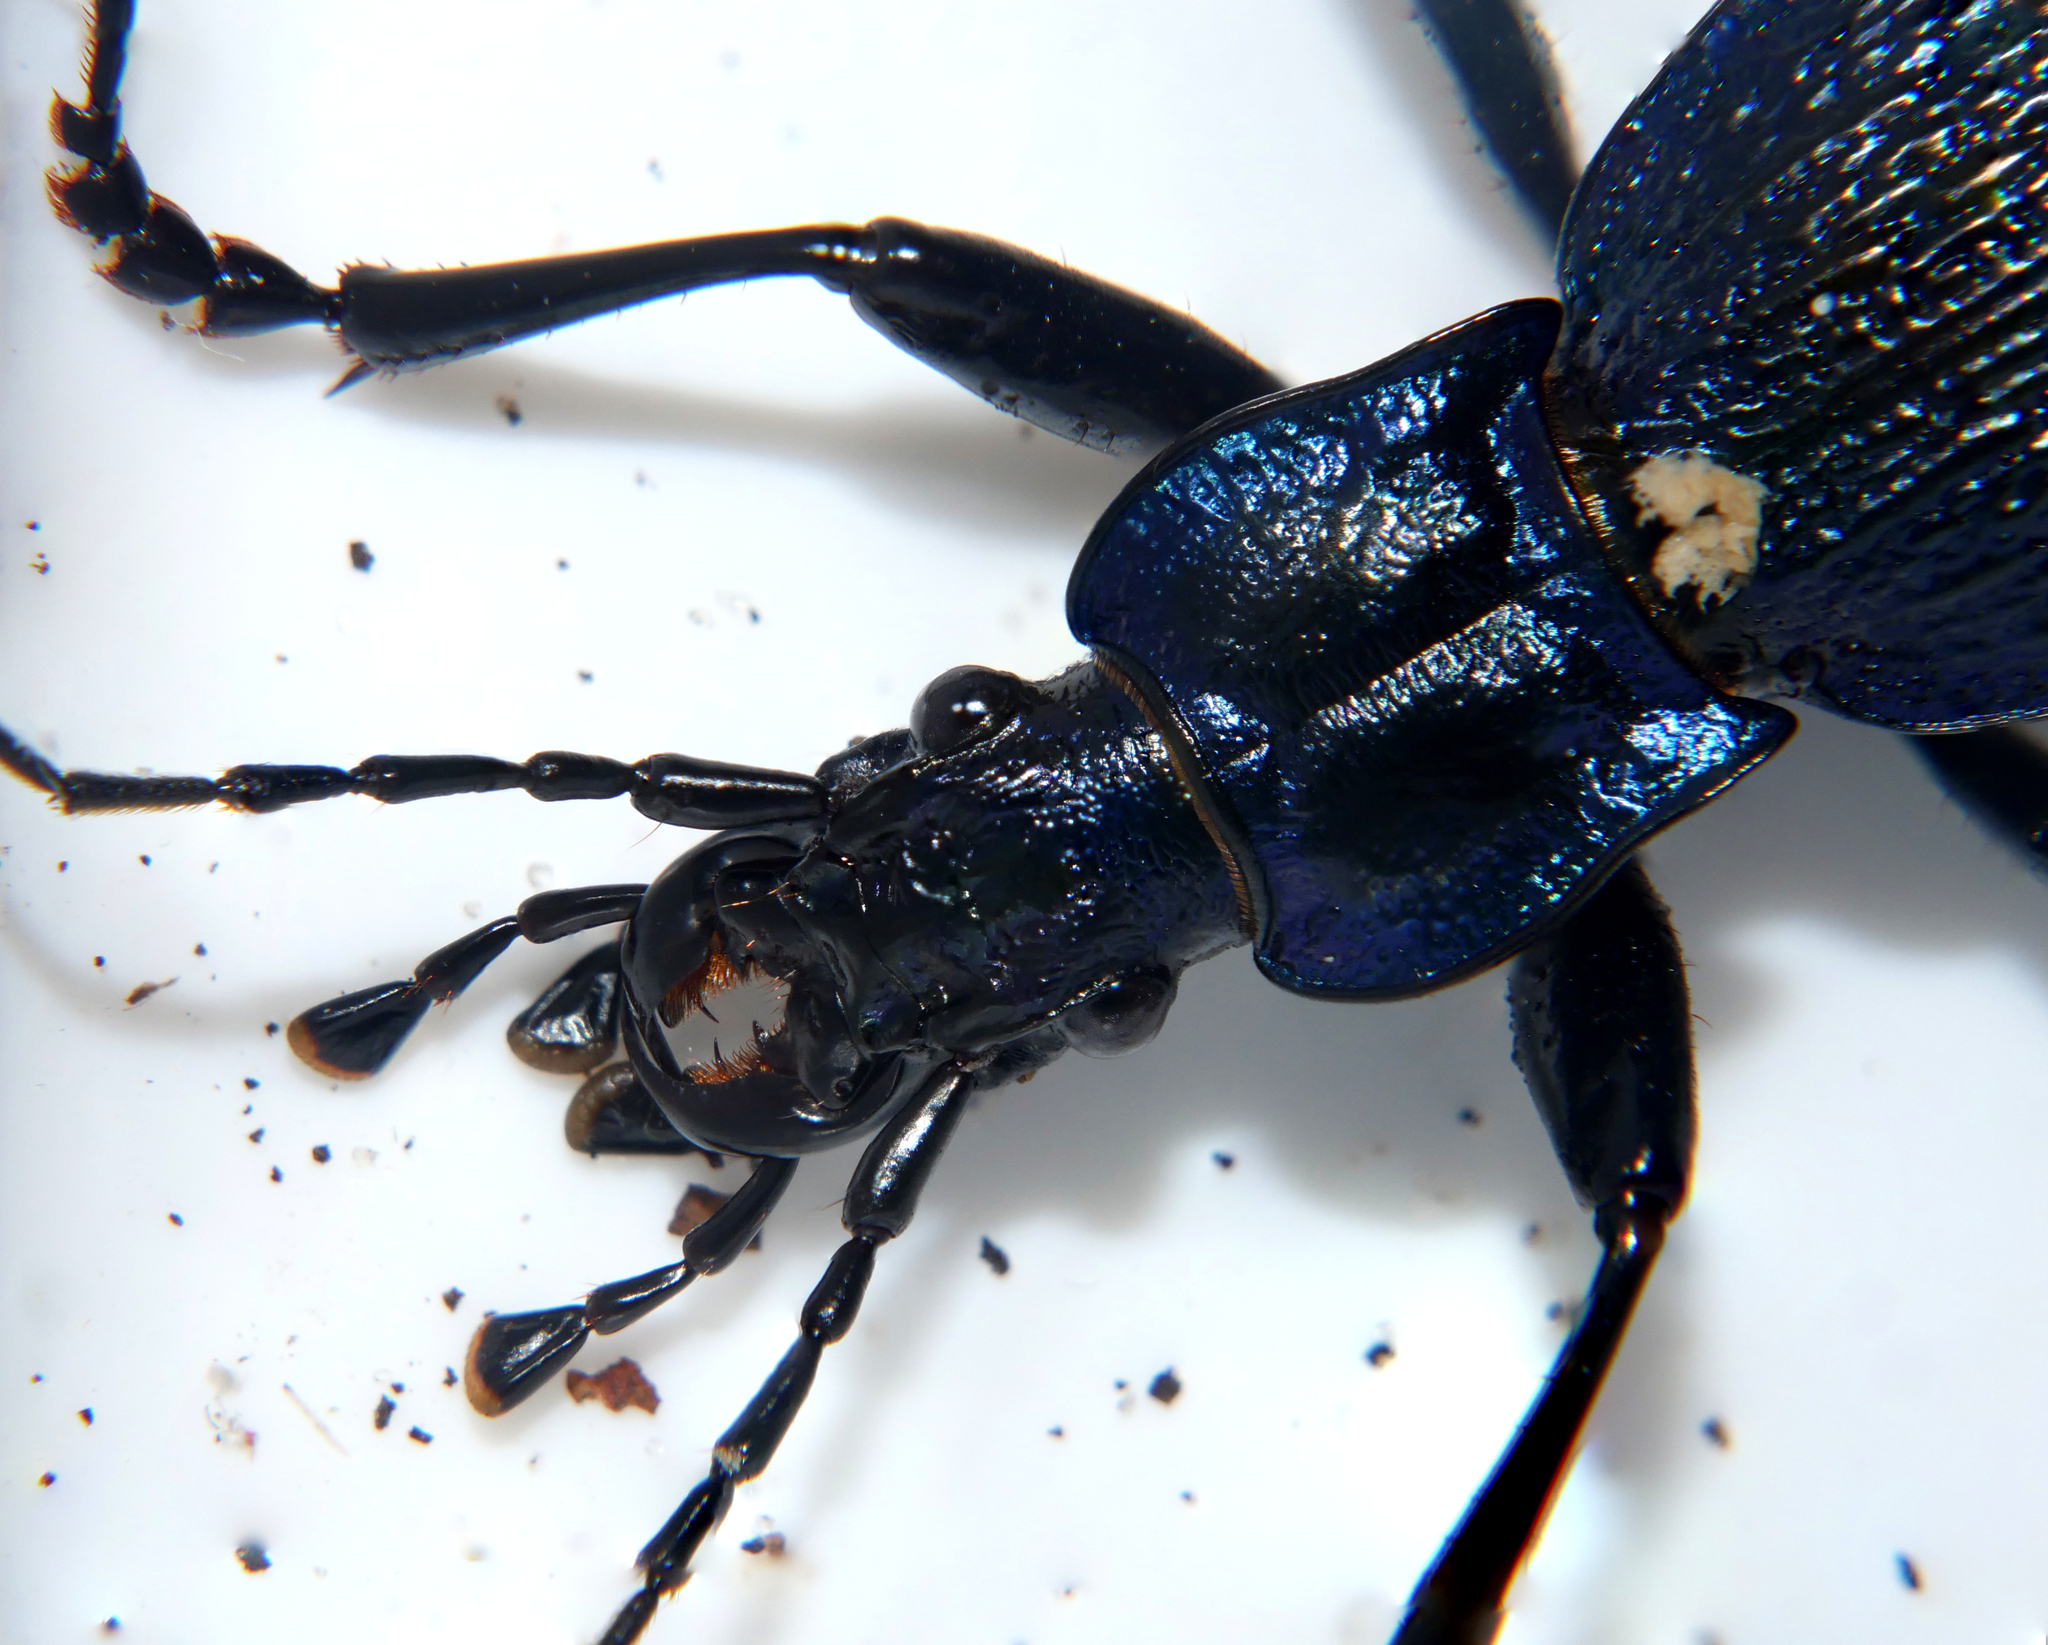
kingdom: Animalia
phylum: Arthropoda
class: Insecta
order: Coleoptera
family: Carabidae
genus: Carabus
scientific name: Carabus intricatus
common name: Blue ground beetle
